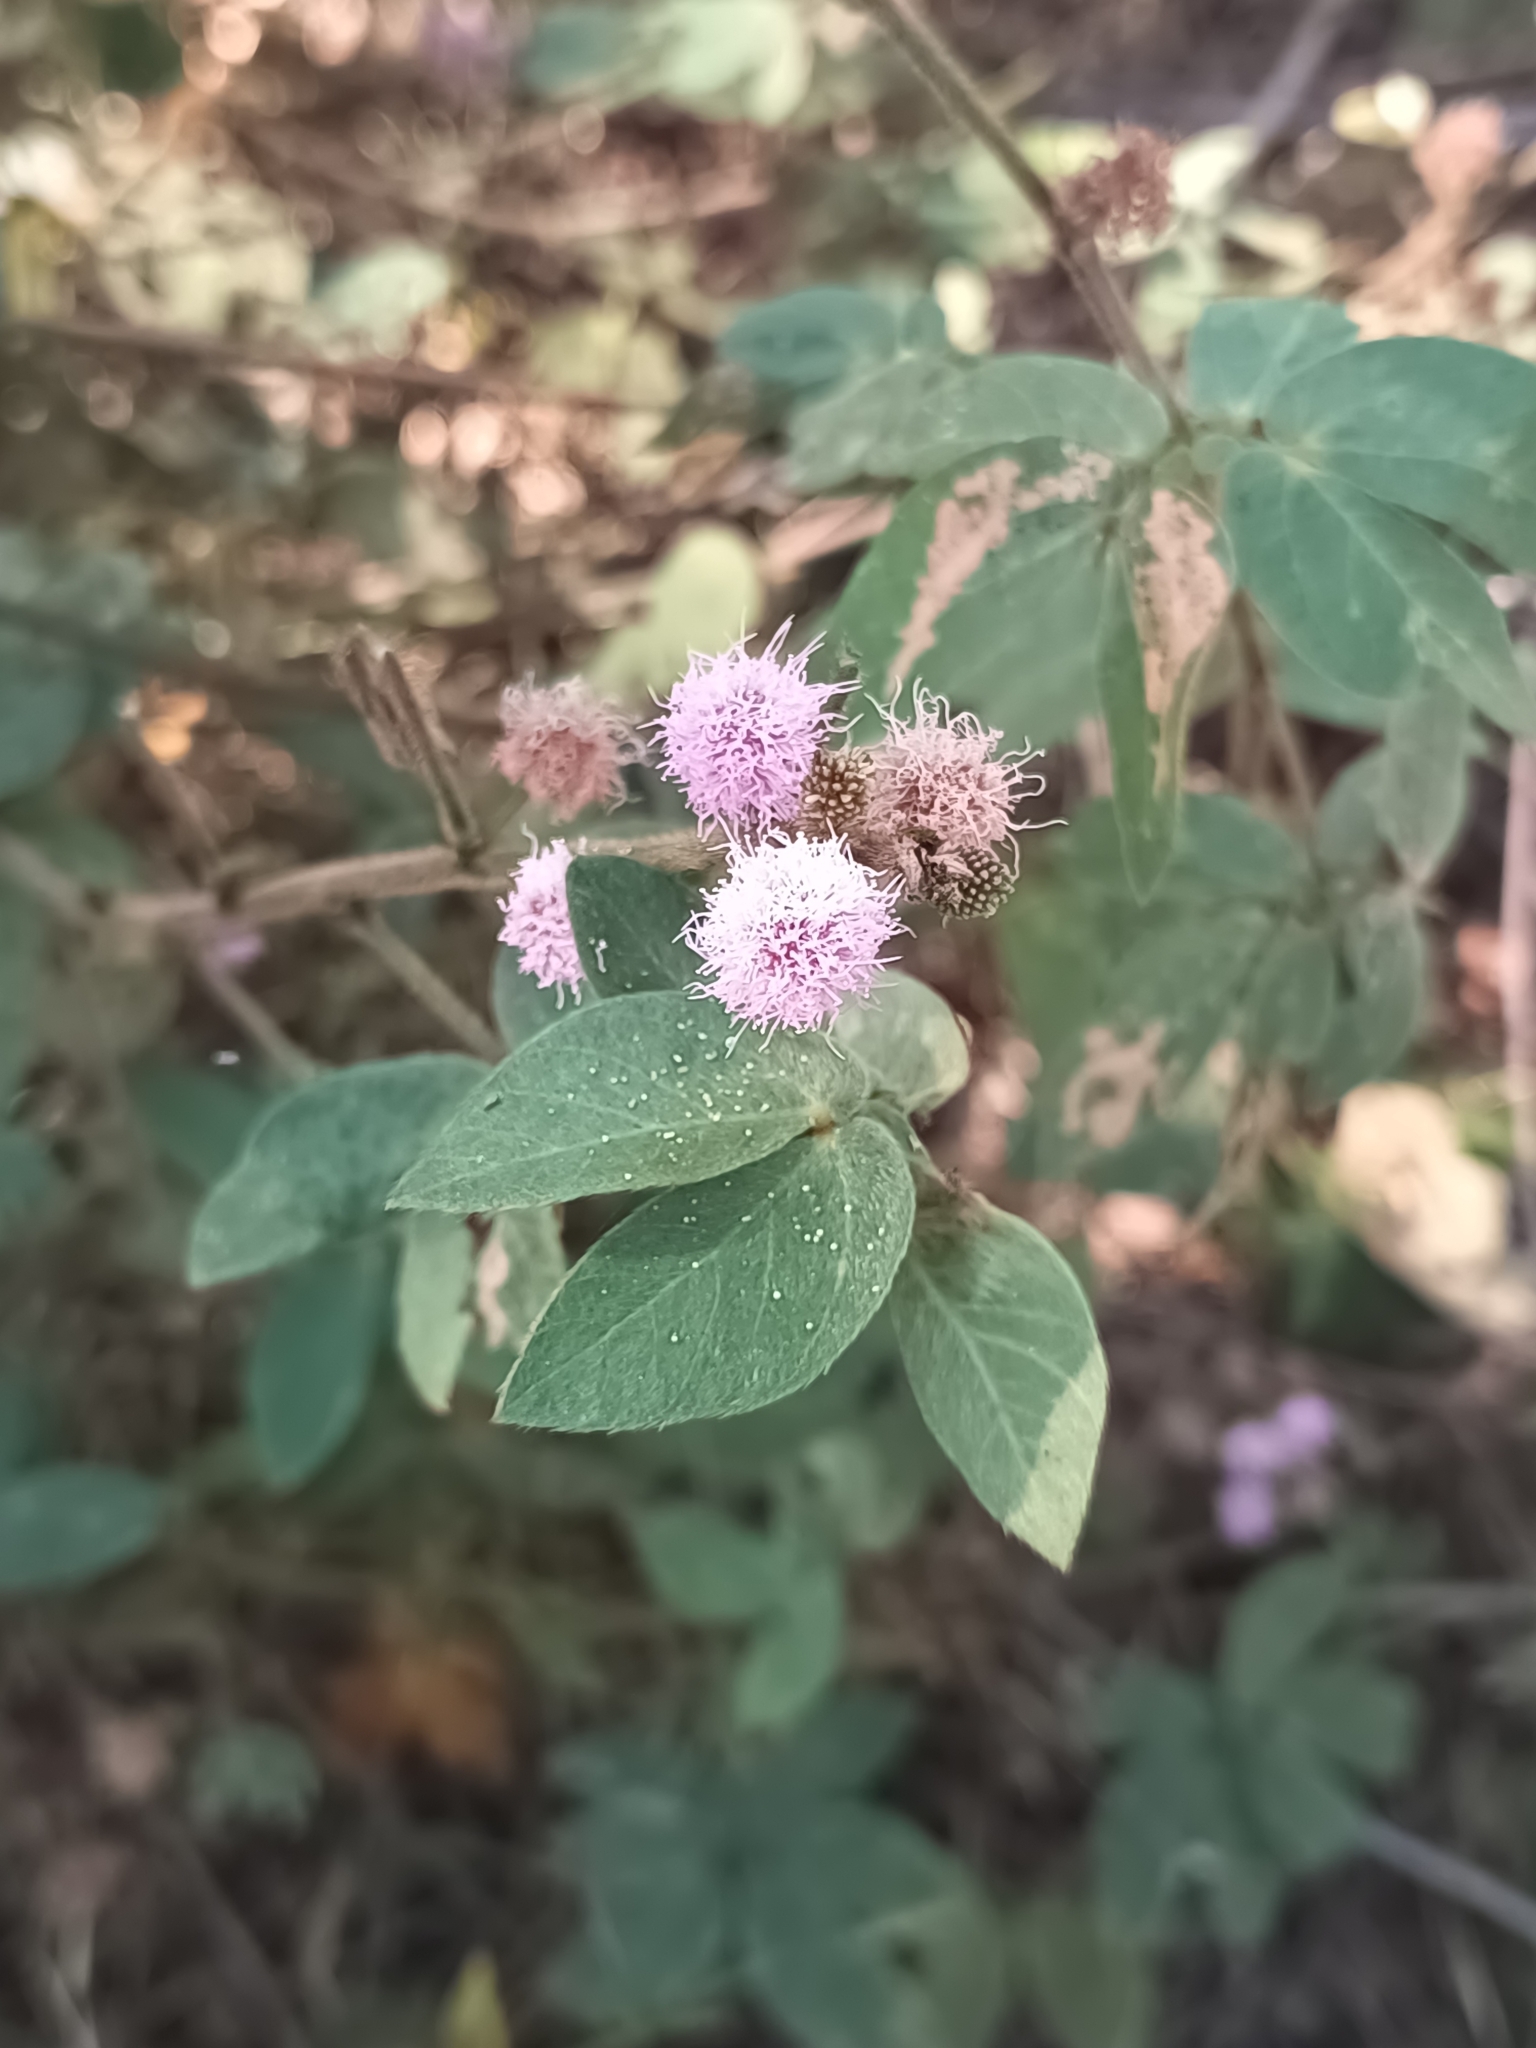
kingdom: Plantae
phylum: Tracheophyta
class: Magnoliopsida
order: Fabales
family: Fabaceae
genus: Mimosa
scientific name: Mimosa albida
